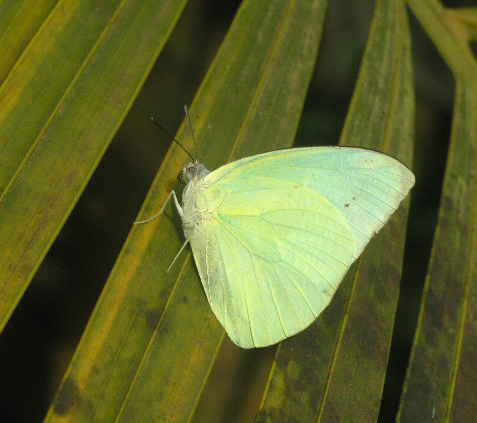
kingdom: Animalia
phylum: Arthropoda
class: Insecta
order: Lepidoptera
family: Pieridae
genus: Catopsilia
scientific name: Catopsilia pomona
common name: Common emigrant
